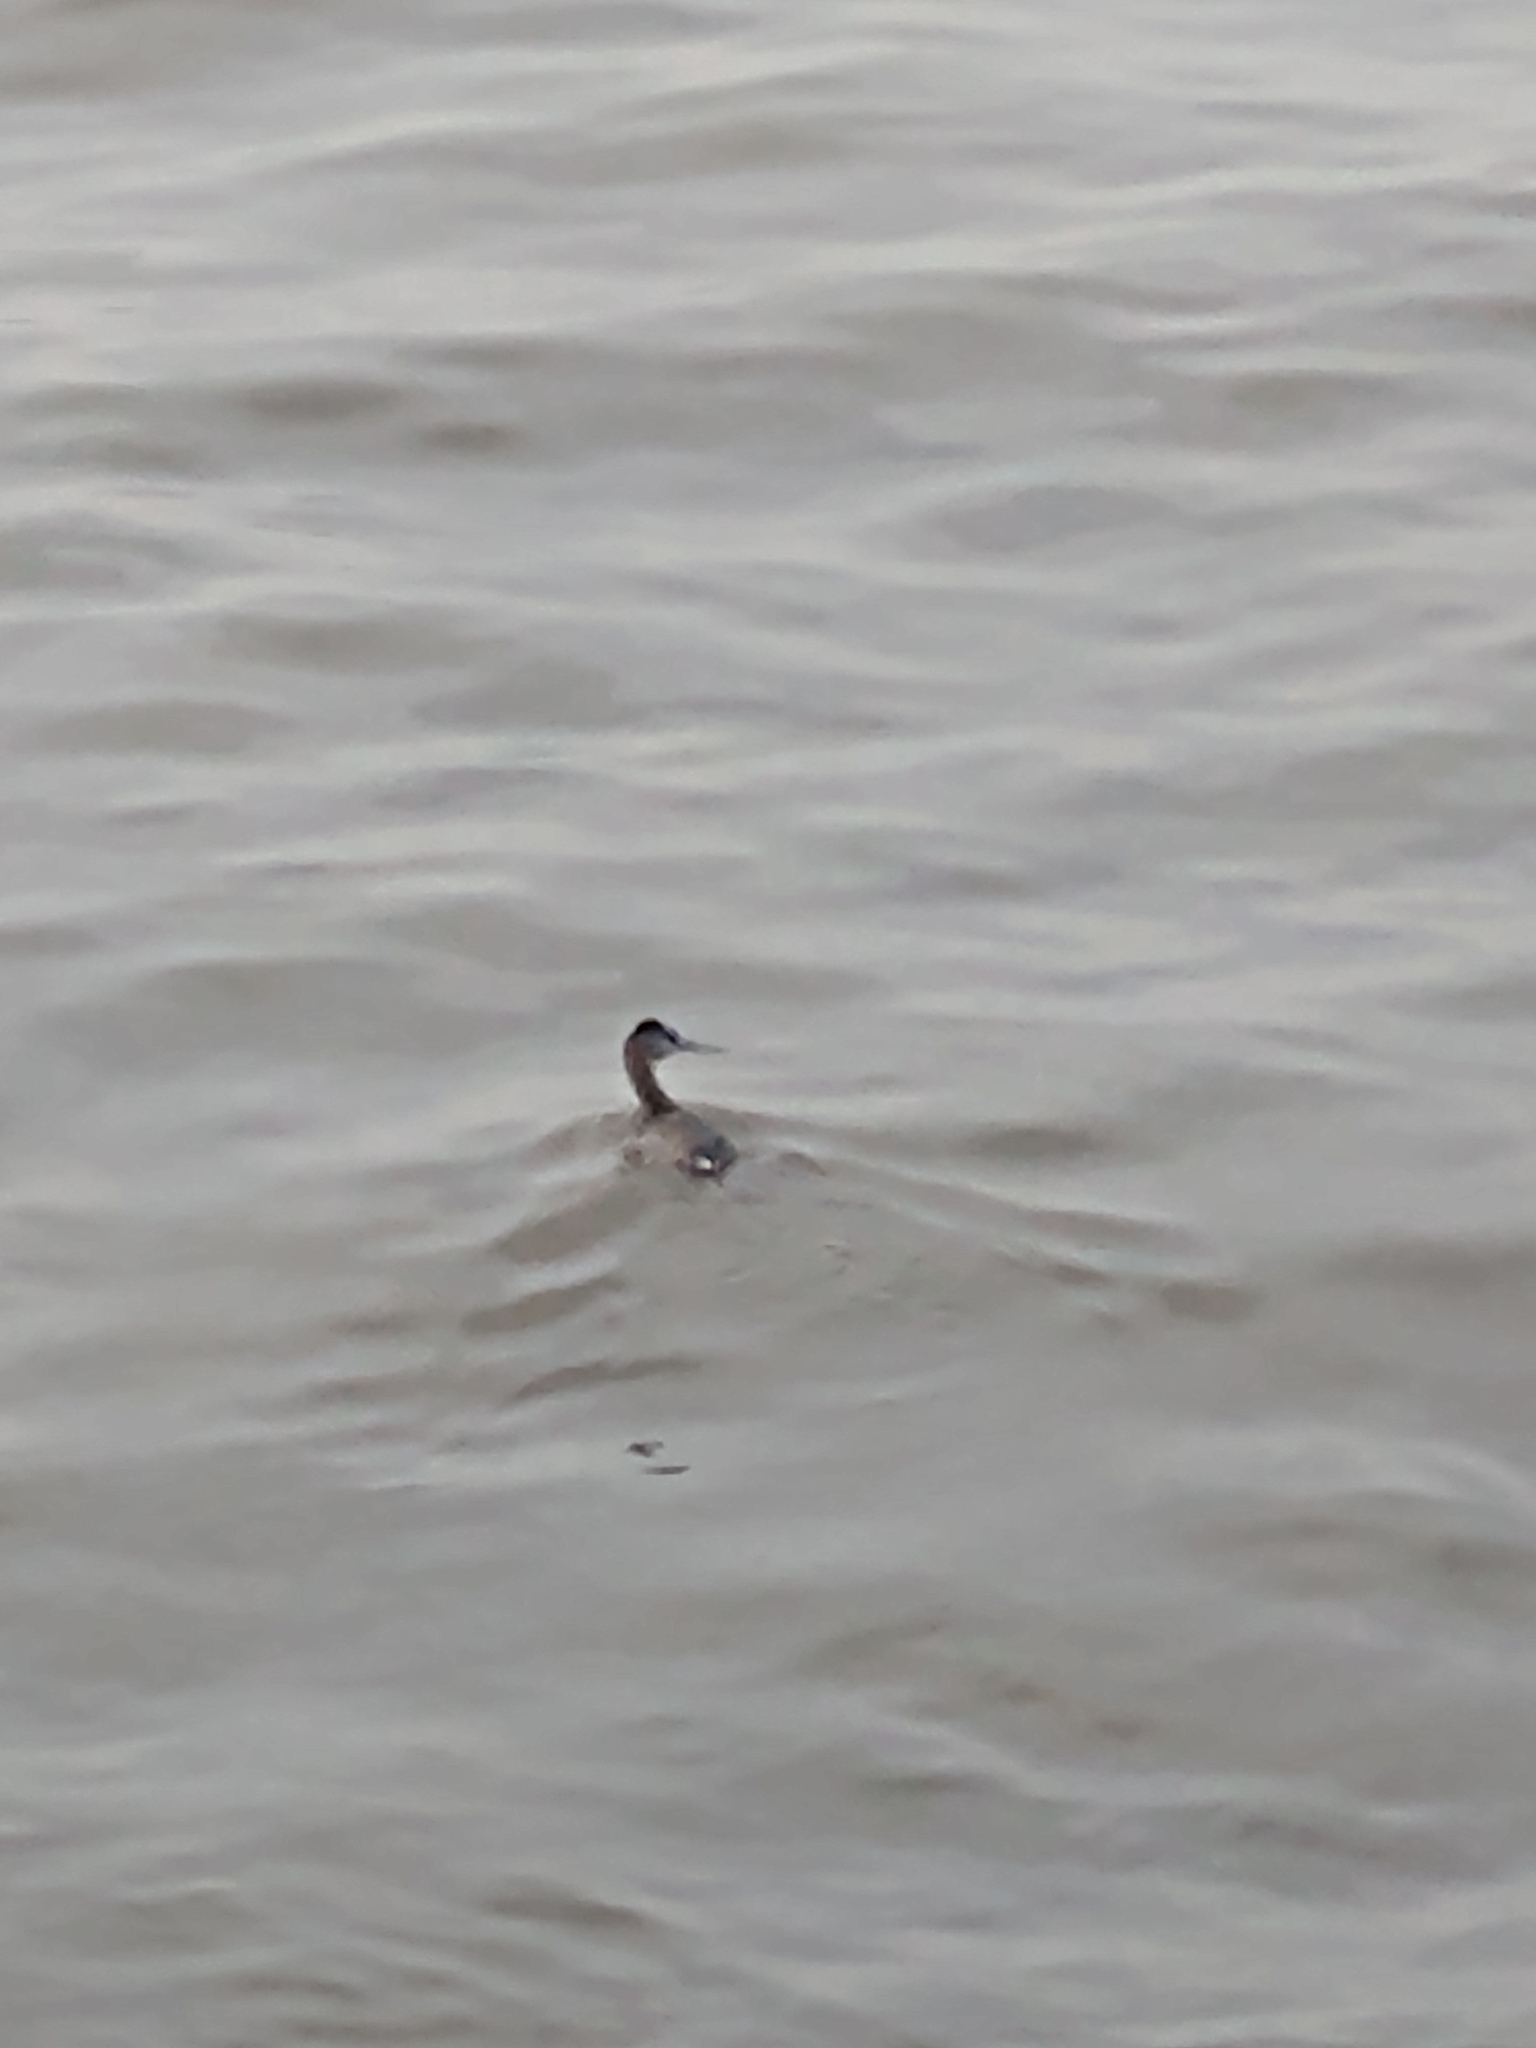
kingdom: Animalia
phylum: Chordata
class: Aves
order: Podicipediformes
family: Podicipedidae
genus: Podiceps
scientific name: Podiceps major
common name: Great grebe
